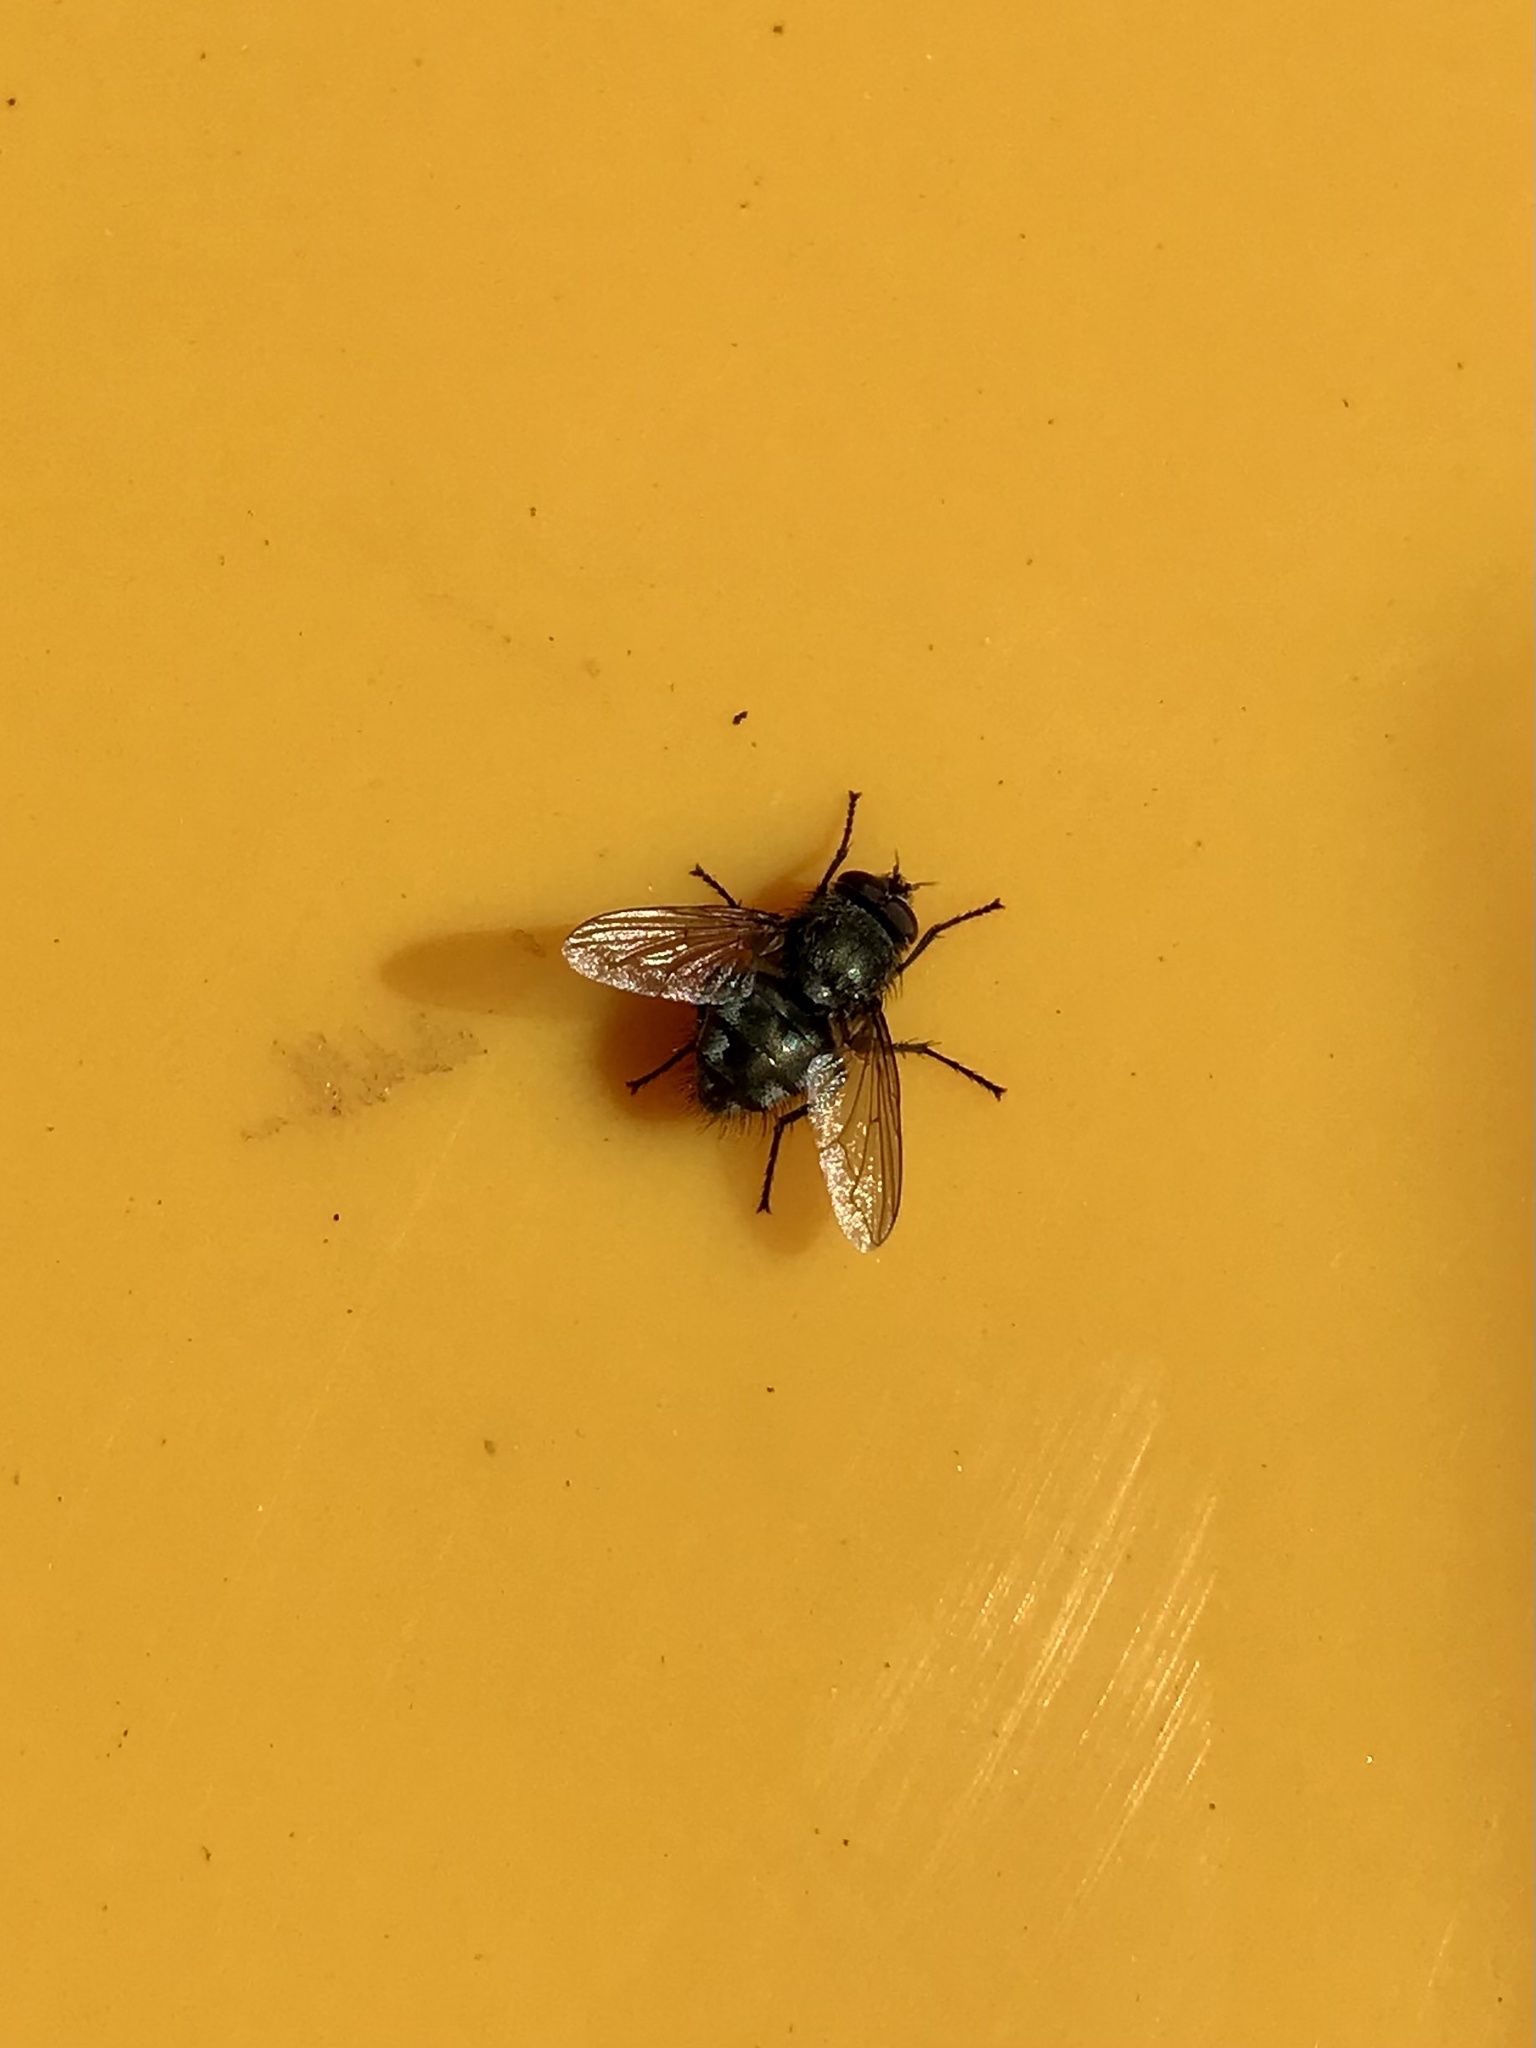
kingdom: Animalia
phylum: Arthropoda
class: Insecta
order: Diptera
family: Polleniidae
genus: Pollenia
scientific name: Pollenia pediculata
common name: Tufted clusterfly
